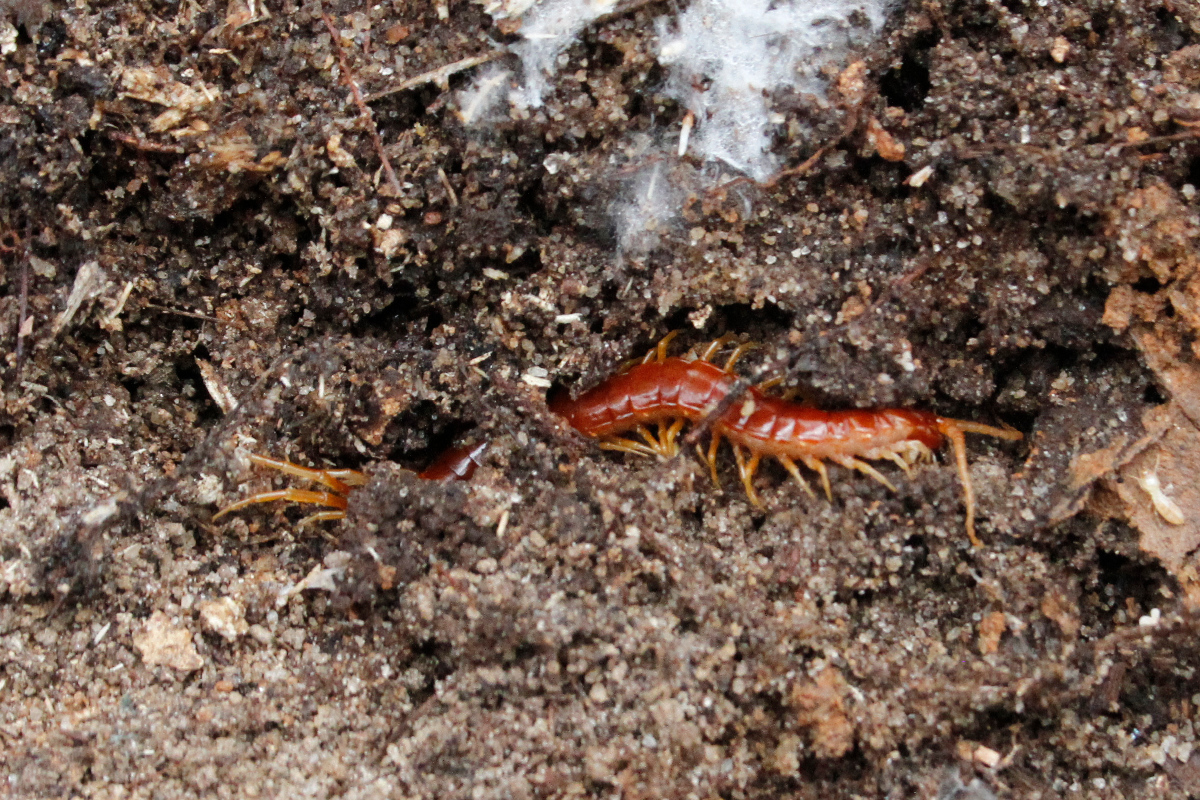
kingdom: Animalia
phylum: Arthropoda
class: Chilopoda
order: Scolopendromorpha
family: Scolopocryptopidae
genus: Scolopocryptops
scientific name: Scolopocryptops sexspinosus
